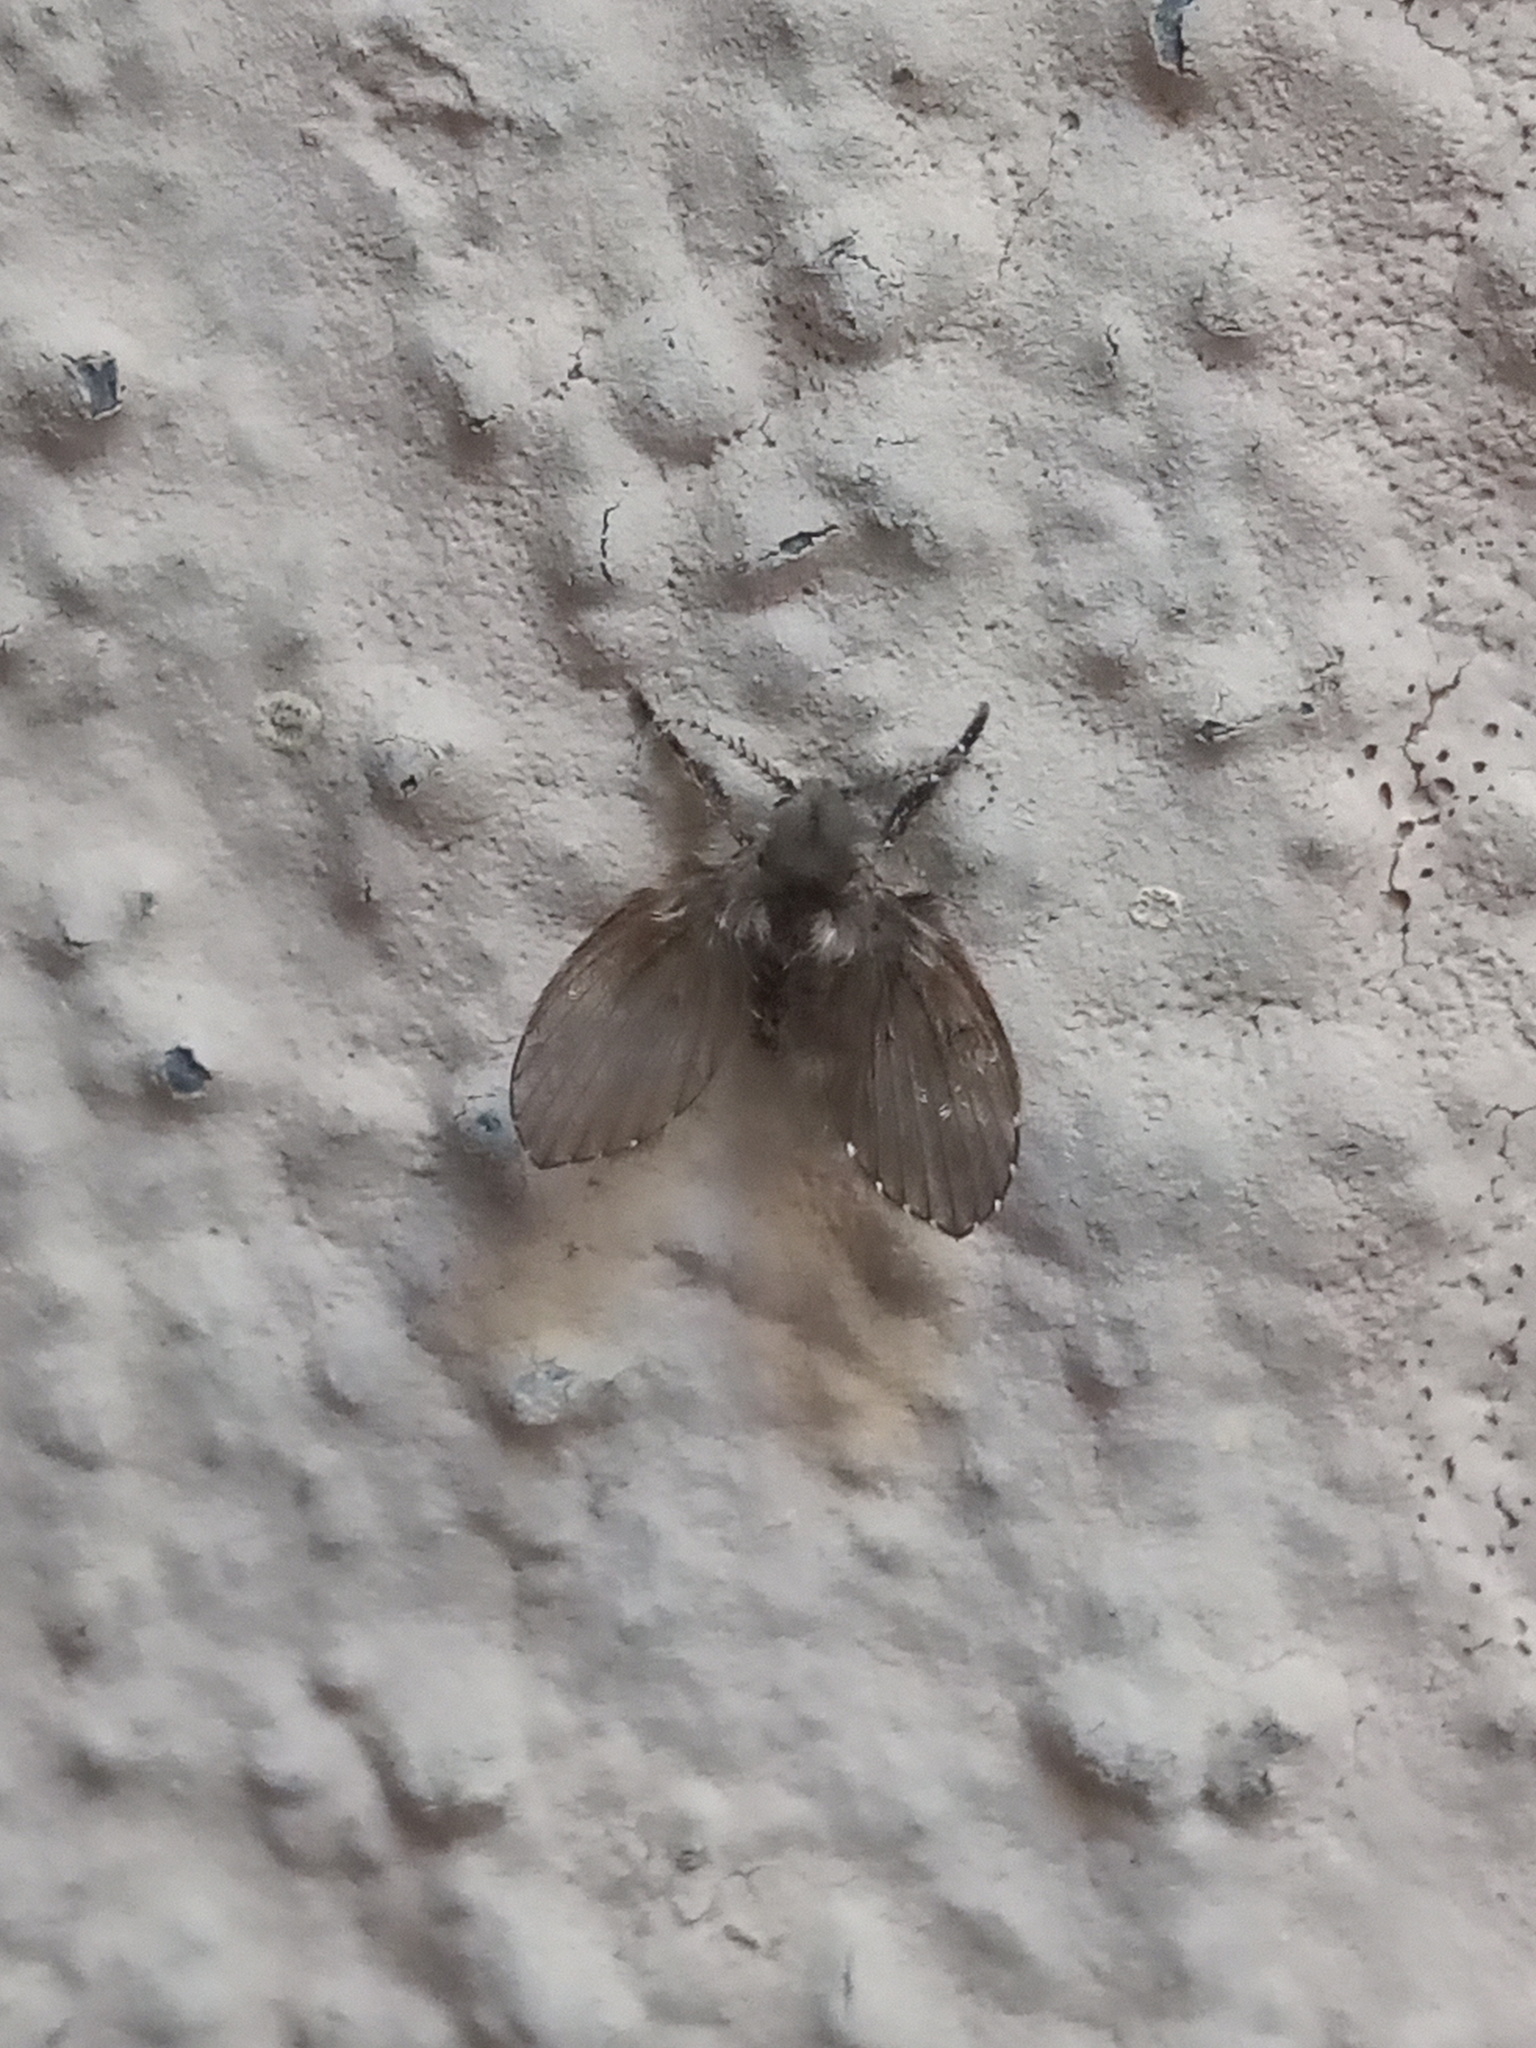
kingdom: Animalia
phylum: Arthropoda
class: Insecta
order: Diptera
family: Psychodidae
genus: Clogmia
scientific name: Clogmia albipunctatus
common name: White-spotted moth fly
